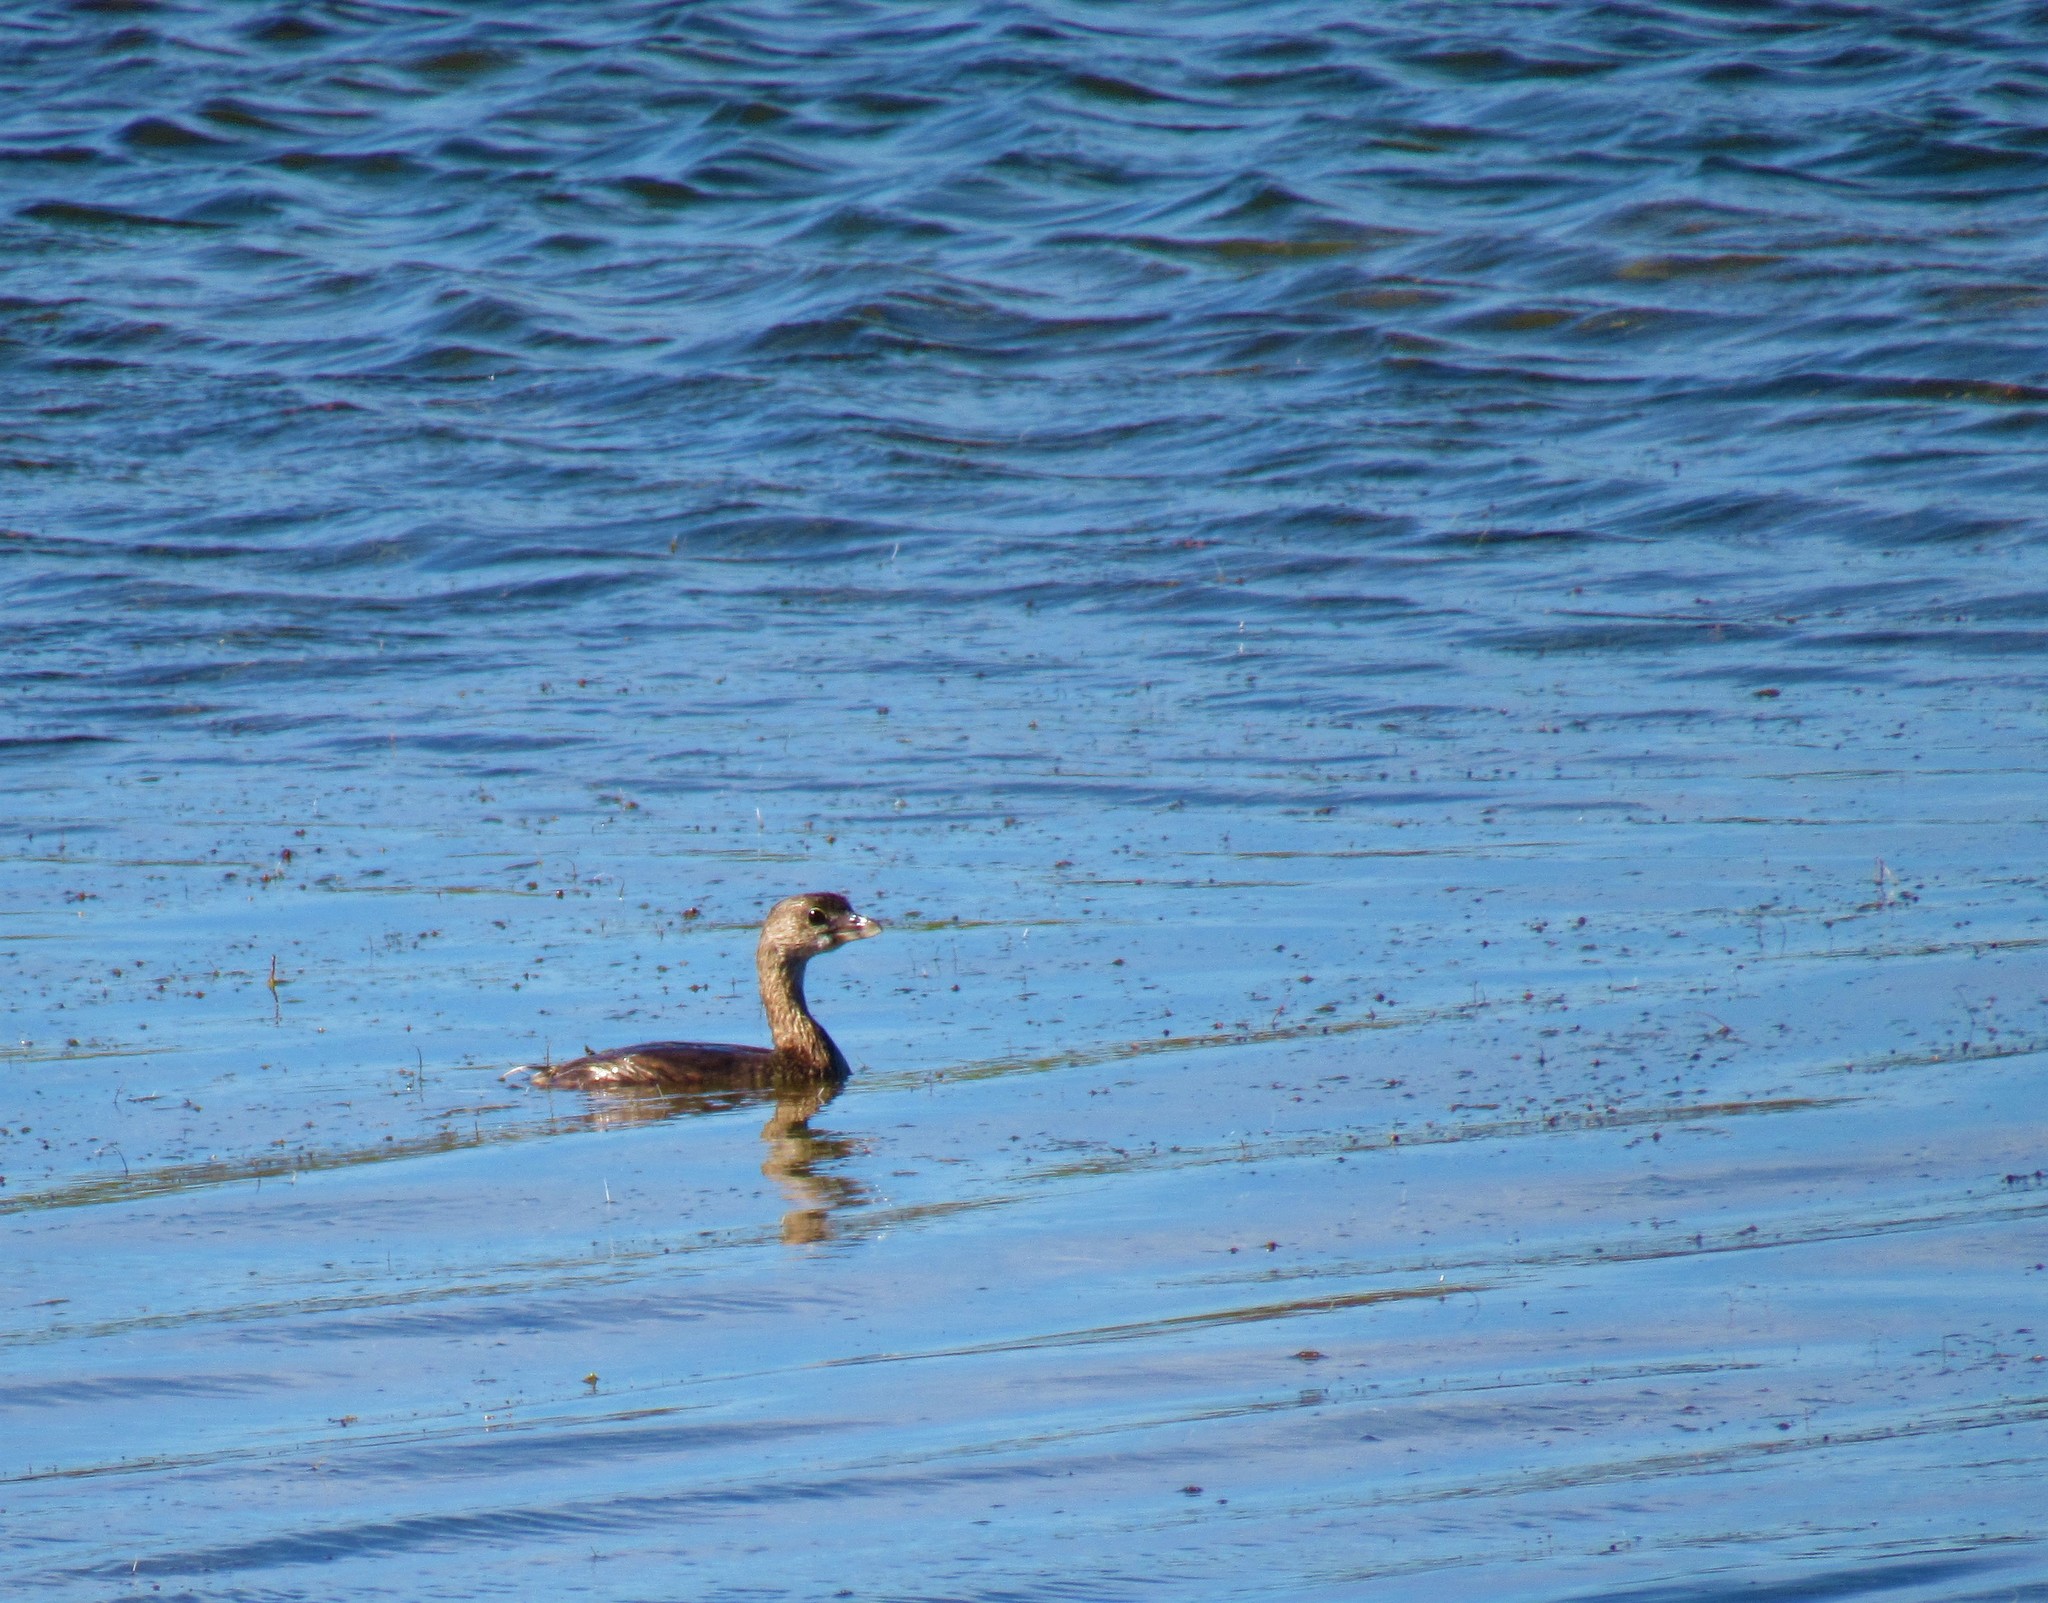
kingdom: Animalia
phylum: Chordata
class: Aves
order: Podicipediformes
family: Podicipedidae
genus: Podilymbus
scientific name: Podilymbus podiceps
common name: Pied-billed grebe
